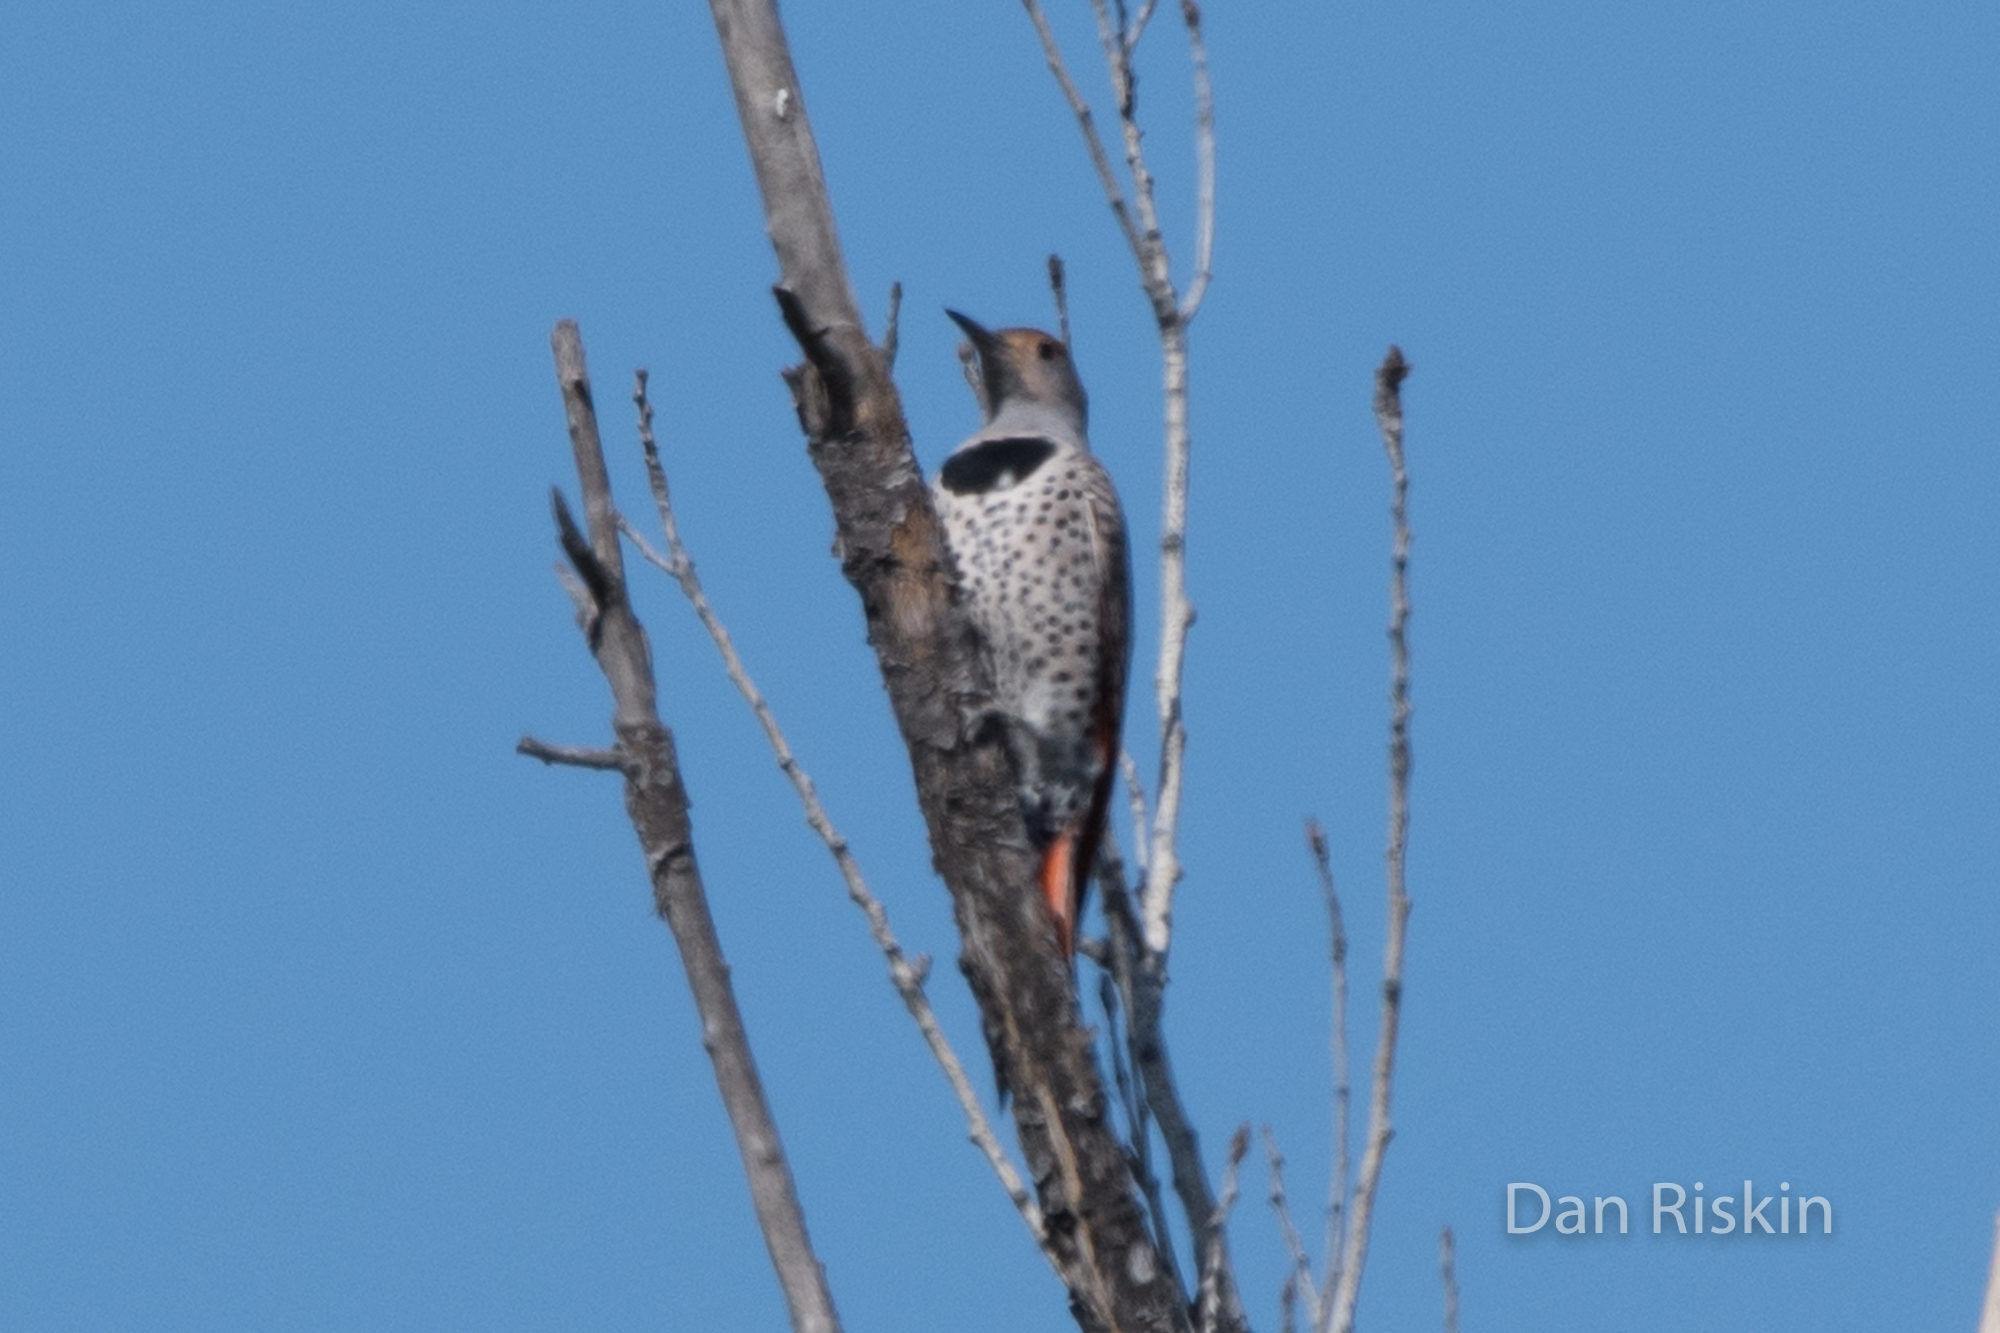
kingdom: Animalia
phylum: Chordata
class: Aves
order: Piciformes
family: Picidae
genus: Colaptes
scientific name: Colaptes auratus
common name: Northern flicker
